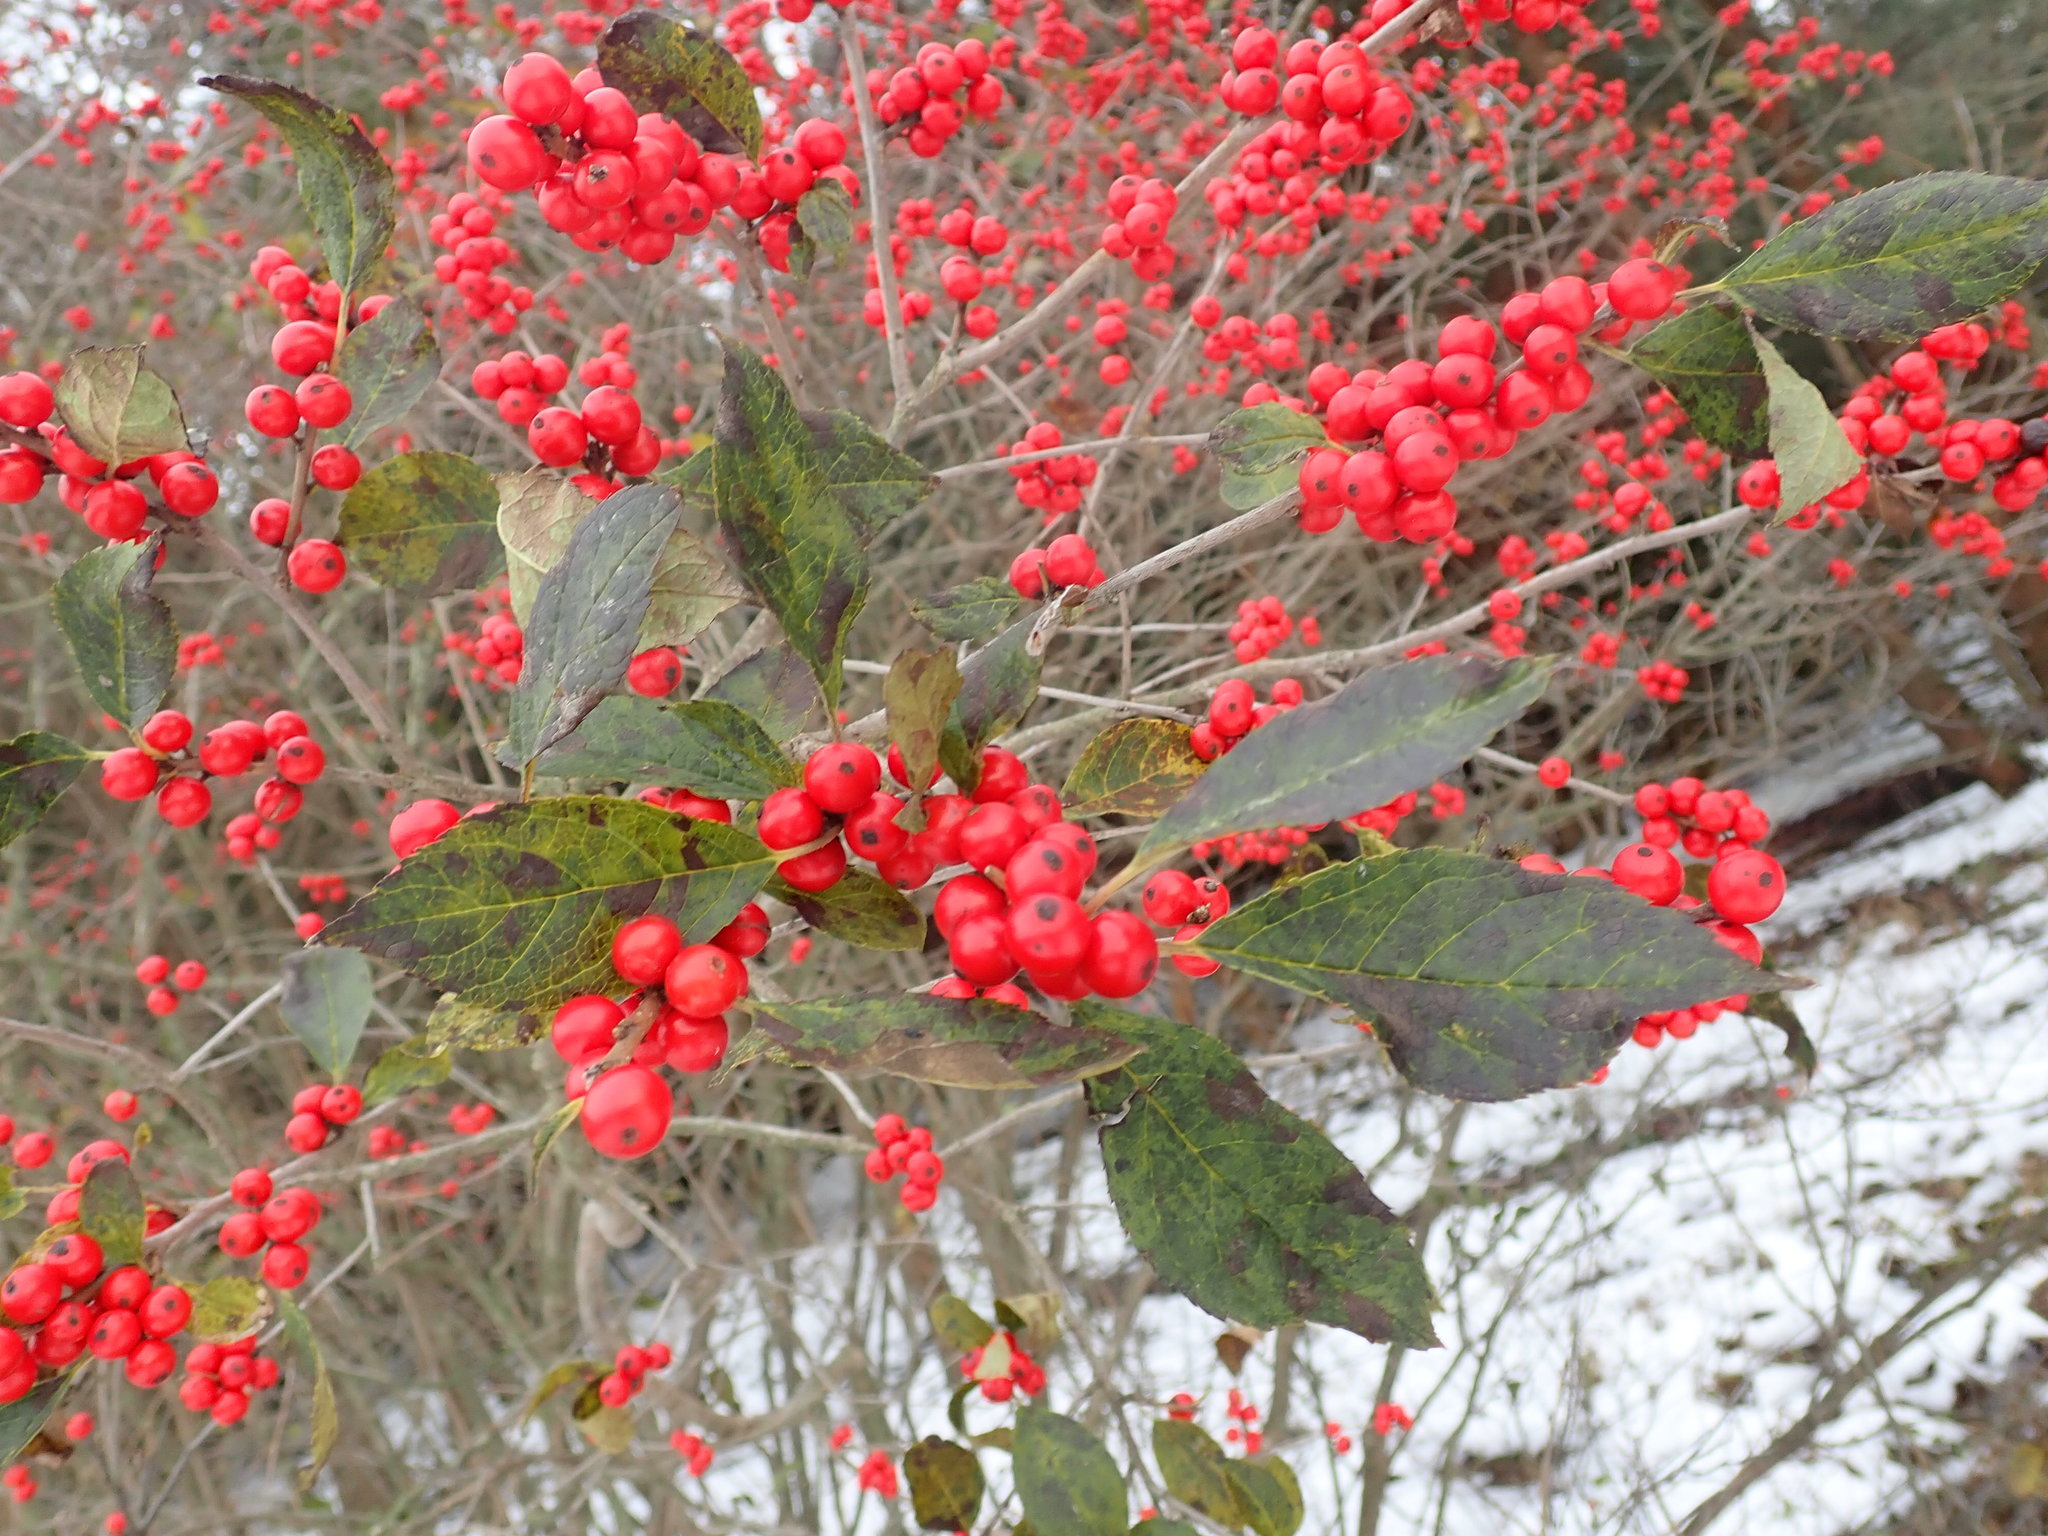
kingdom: Plantae
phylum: Tracheophyta
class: Magnoliopsida
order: Aquifoliales
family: Aquifoliaceae
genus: Ilex
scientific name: Ilex verticillata
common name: Virginia winterberry
